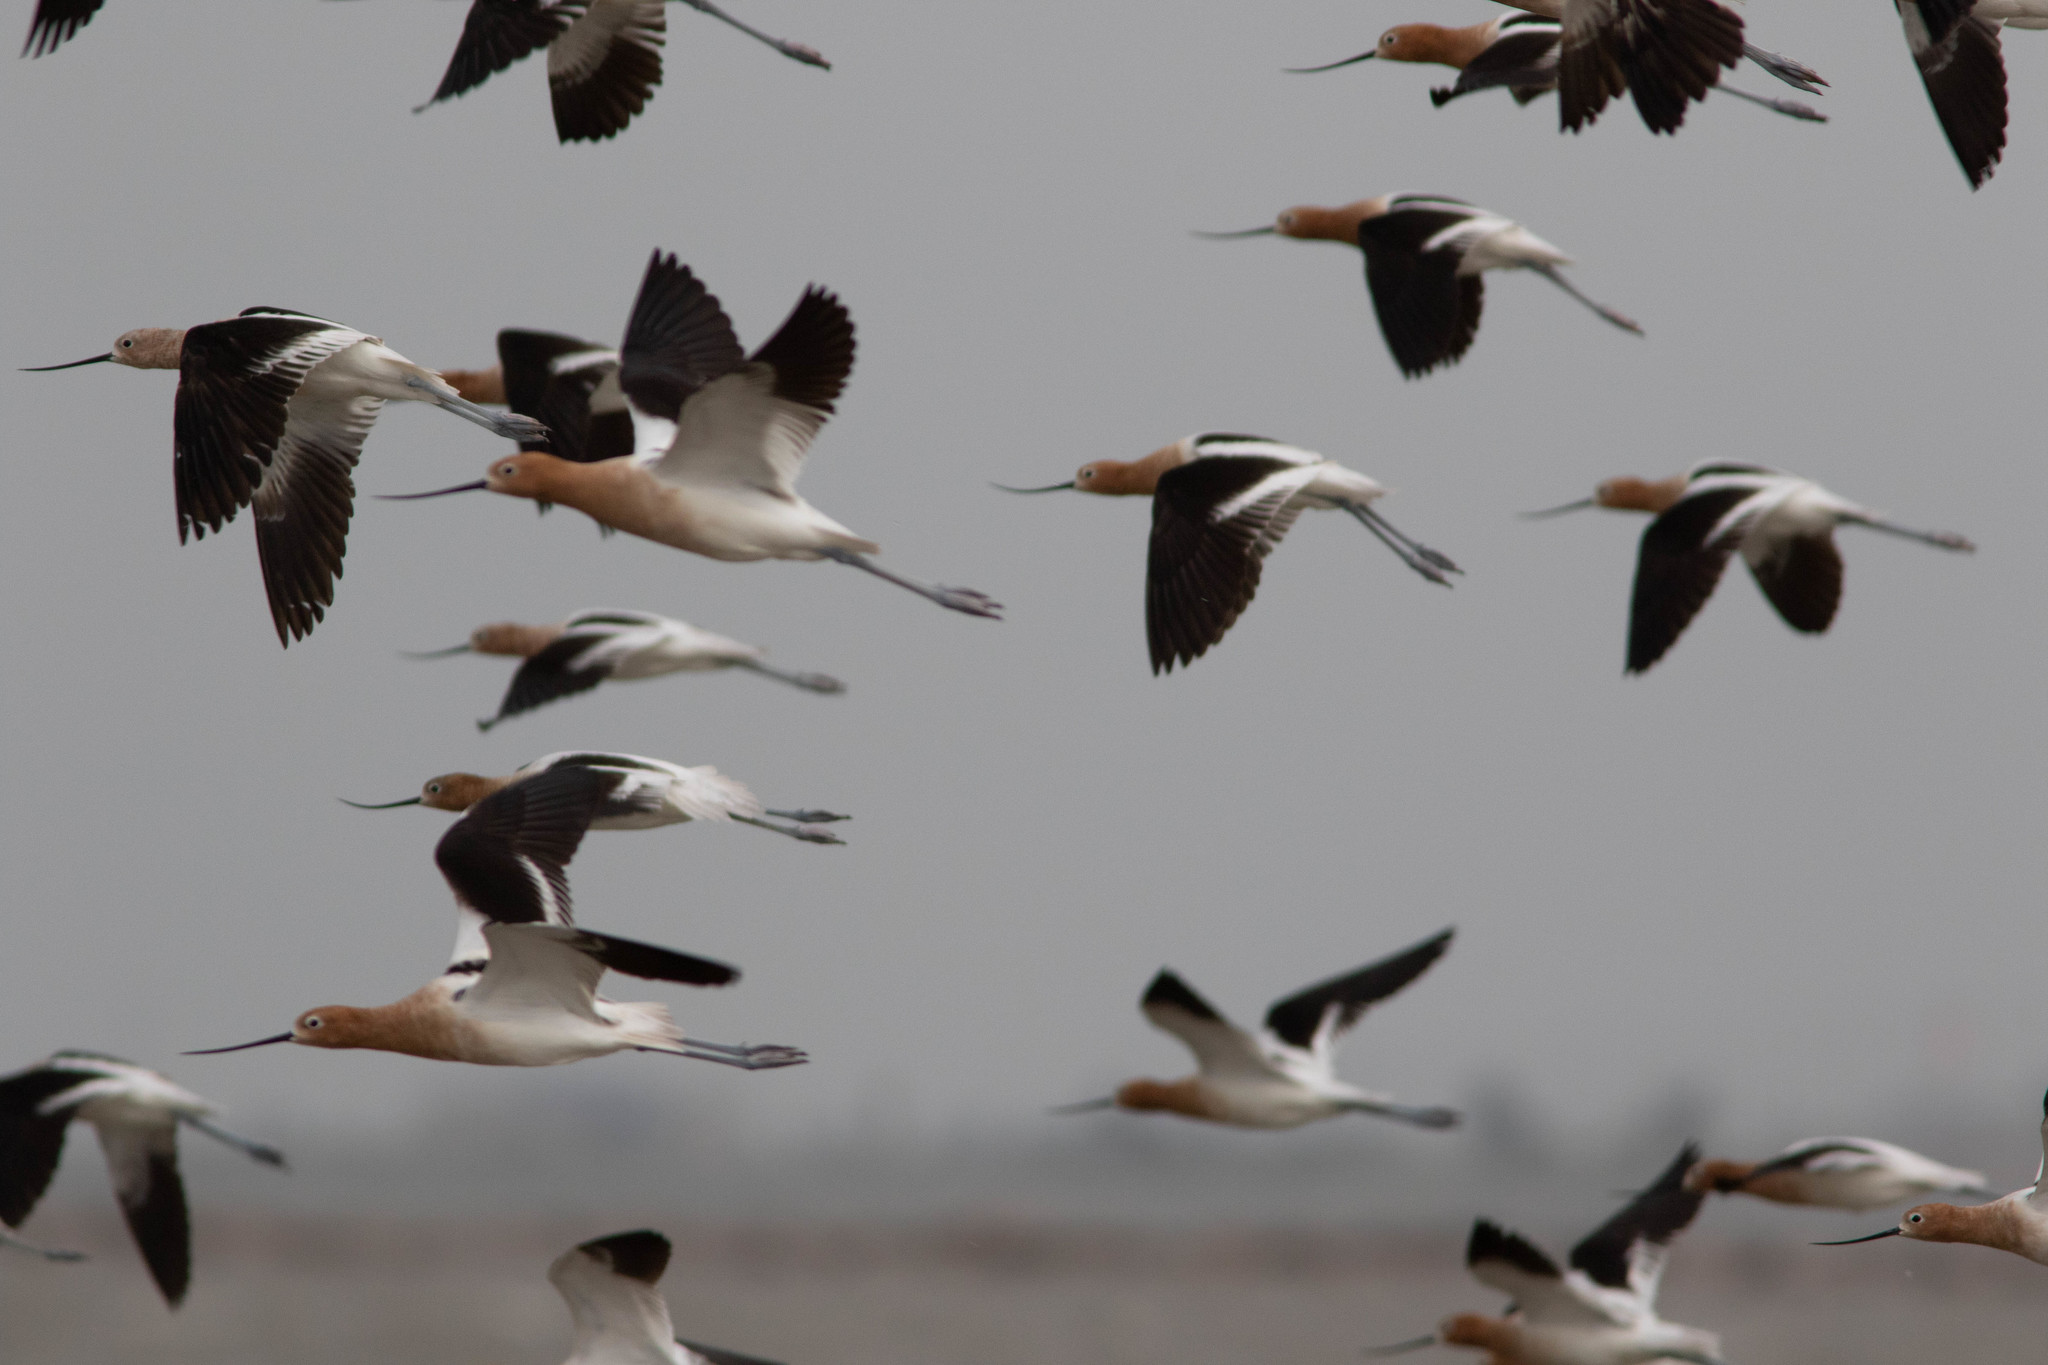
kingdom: Animalia
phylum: Chordata
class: Aves
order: Charadriiformes
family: Recurvirostridae
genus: Recurvirostra
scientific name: Recurvirostra americana
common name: American avocet
